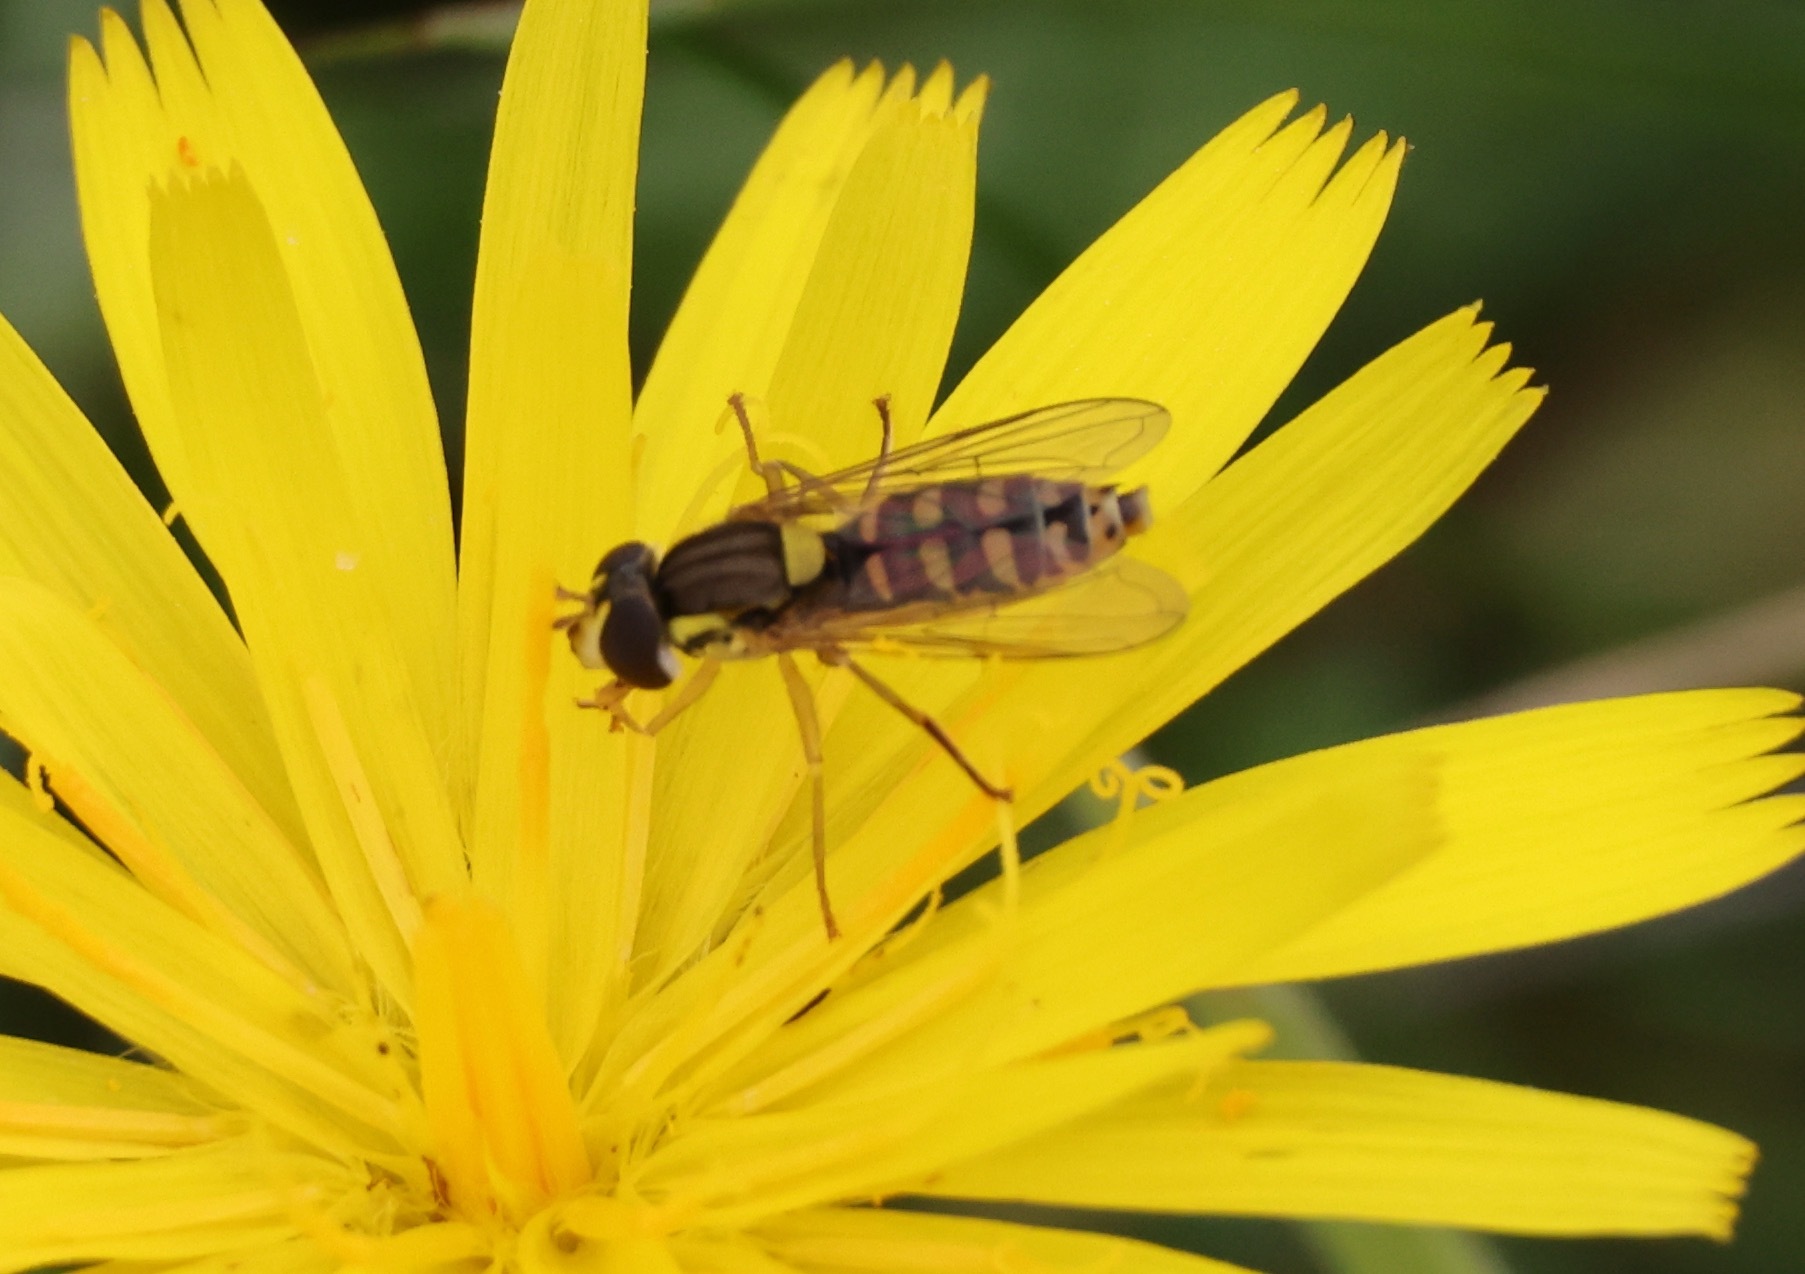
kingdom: Animalia
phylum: Arthropoda
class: Insecta
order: Diptera
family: Syrphidae
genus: Sphaerophoria
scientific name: Sphaerophoria
